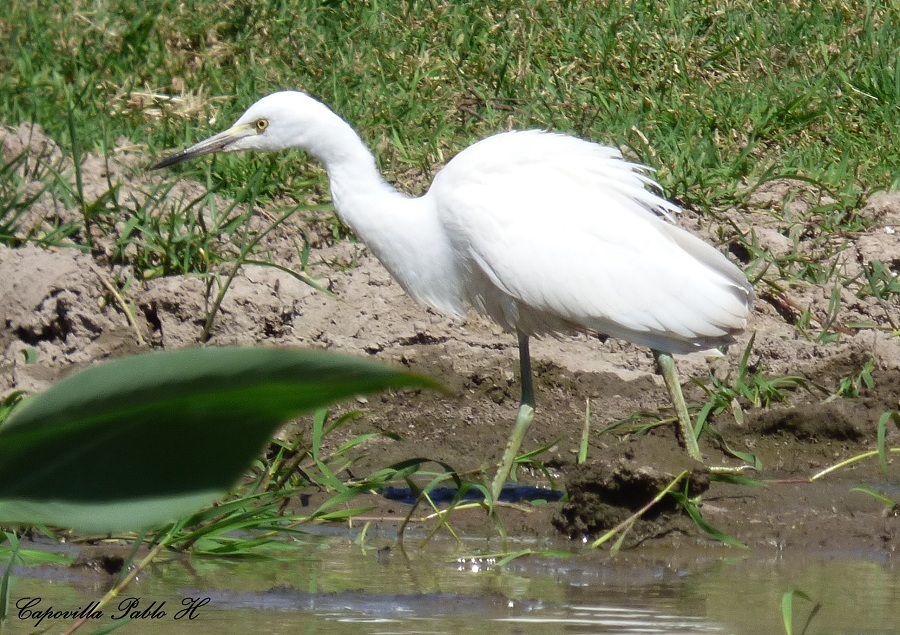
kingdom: Animalia
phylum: Chordata
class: Aves
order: Pelecaniformes
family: Ardeidae
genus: Egretta
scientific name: Egretta caerulea
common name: Little blue heron
